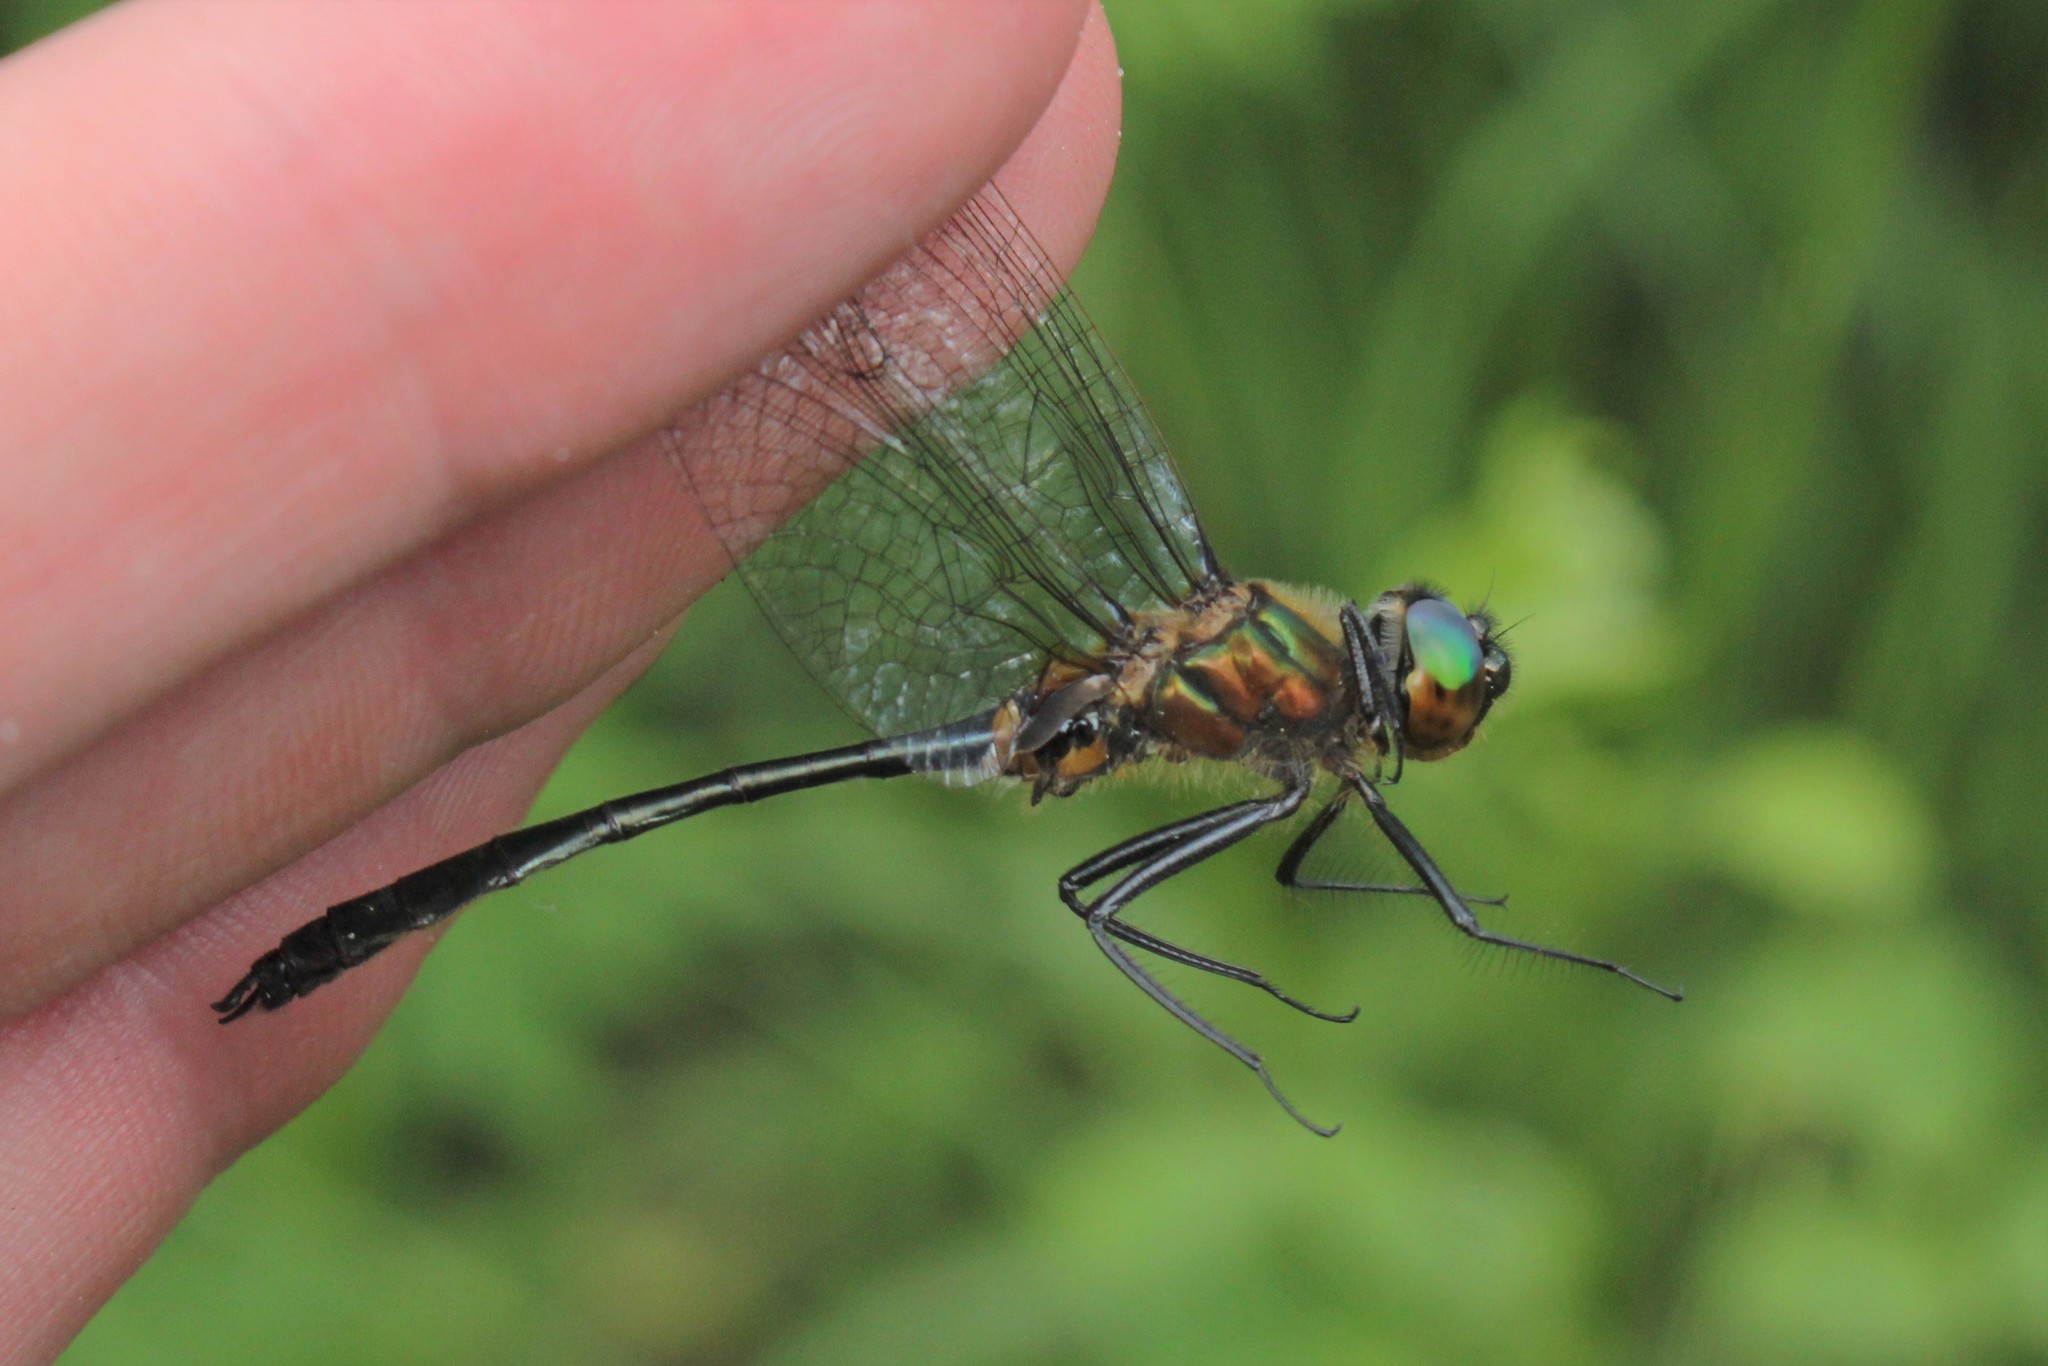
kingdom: Animalia
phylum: Arthropoda
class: Insecta
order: Odonata
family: Corduliidae
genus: Dorocordulia
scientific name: Dorocordulia libera
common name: Racket-tailed emerald
